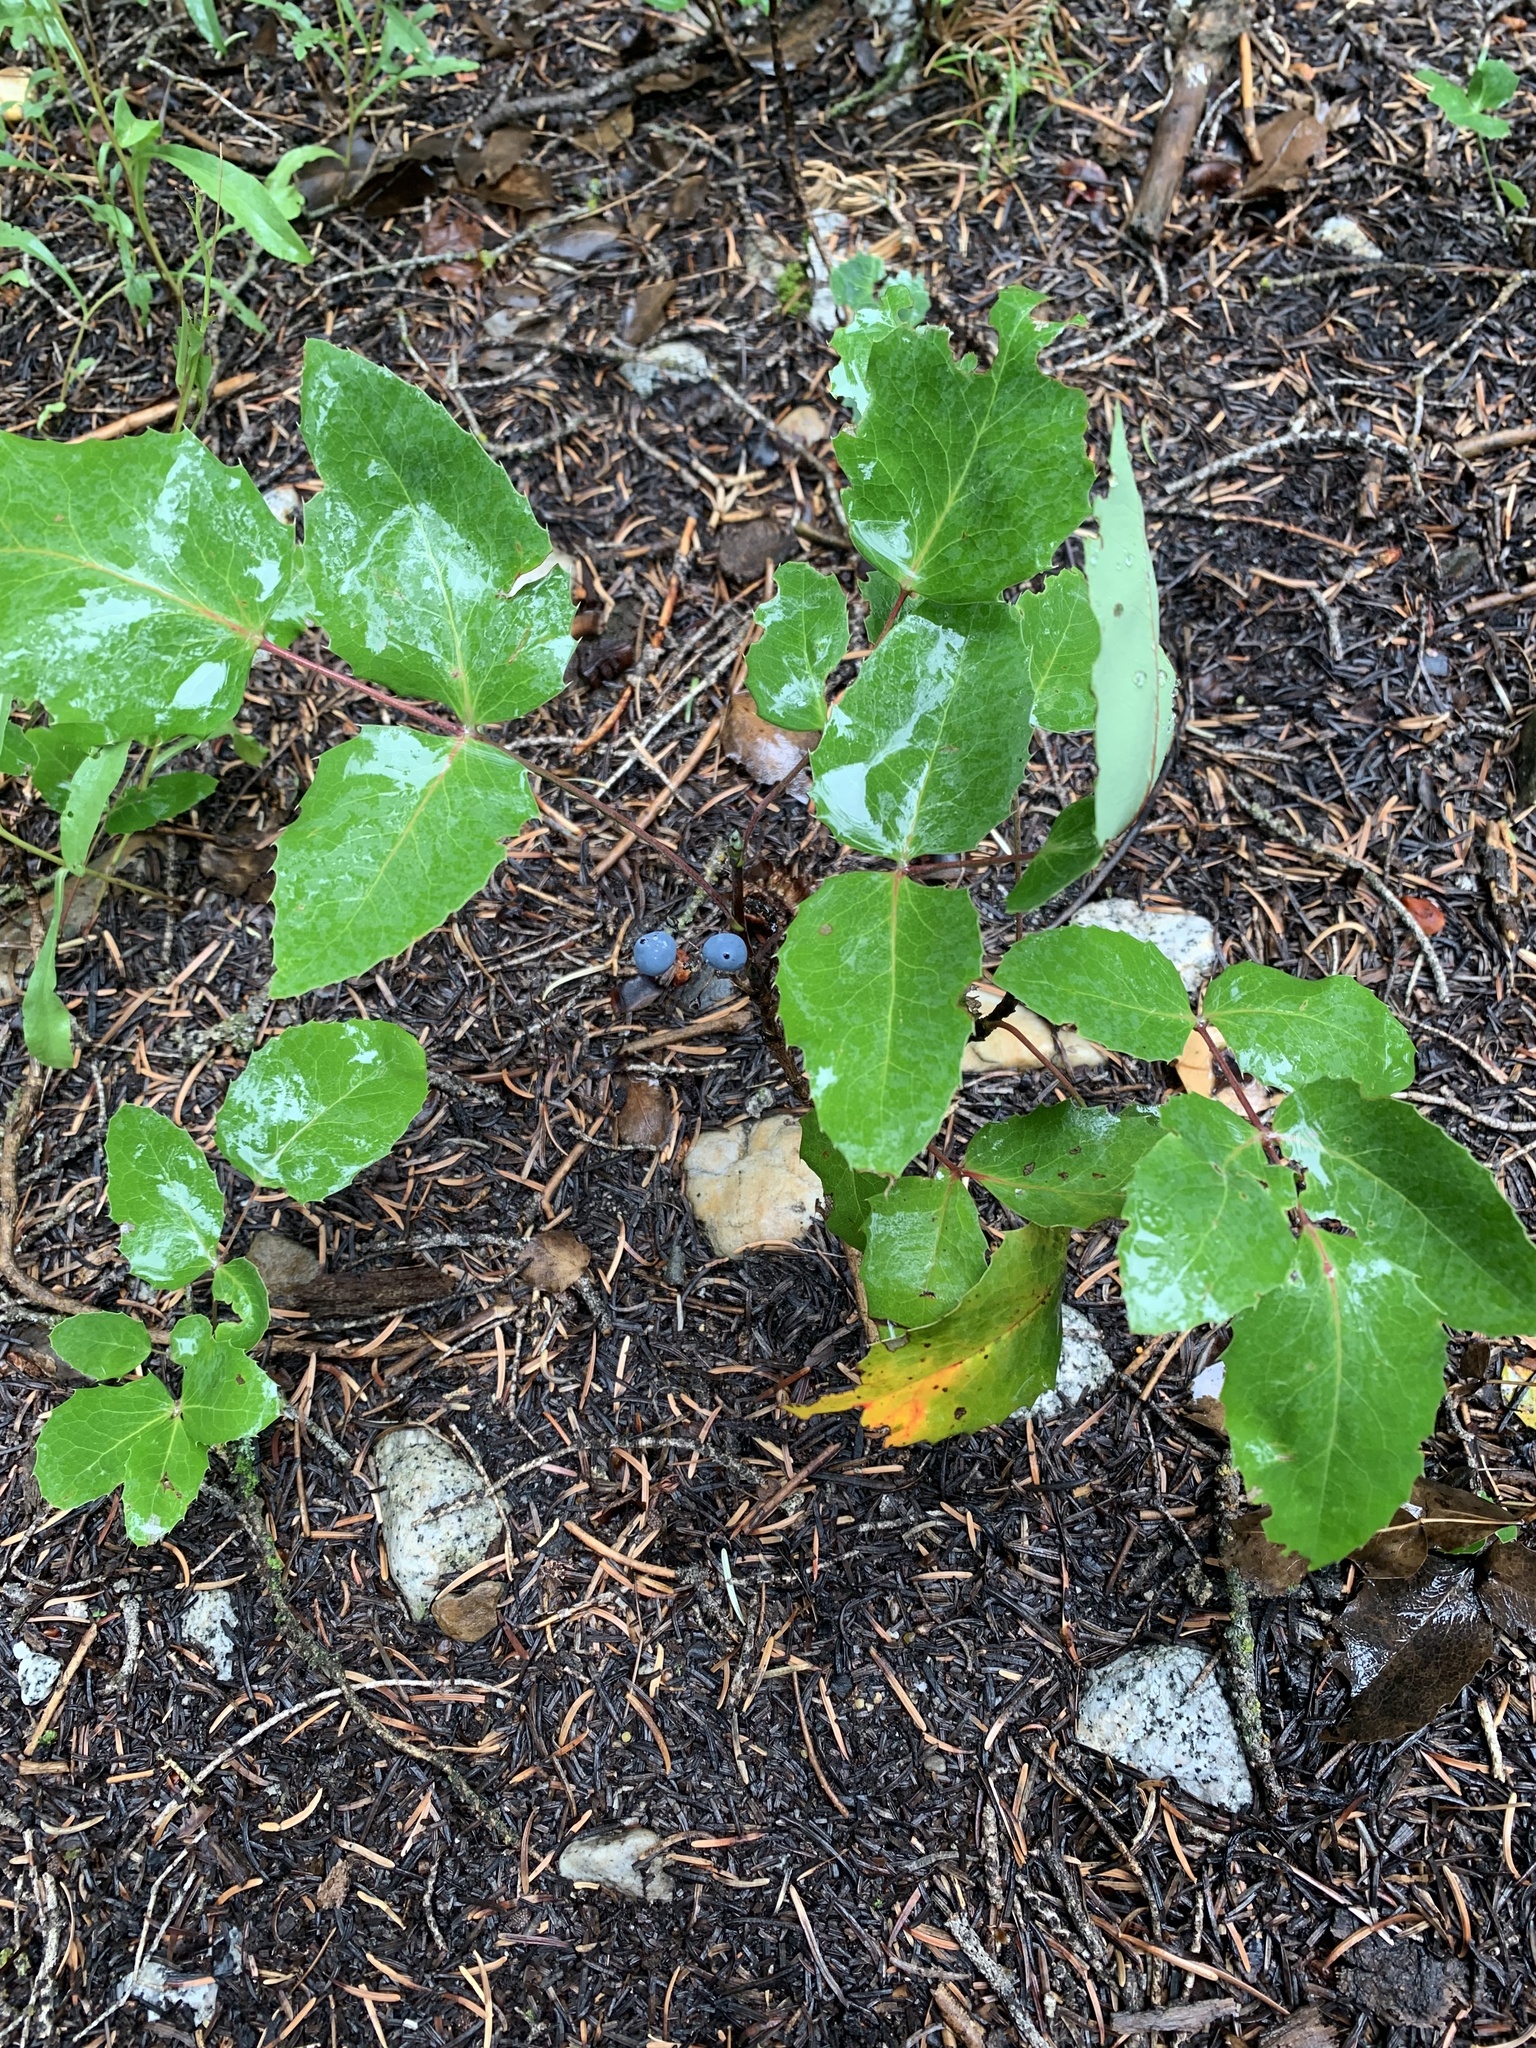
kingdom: Plantae
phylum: Tracheophyta
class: Magnoliopsida
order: Ranunculales
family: Berberidaceae
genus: Mahonia
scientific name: Mahonia repens
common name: Creeping oregon-grape
